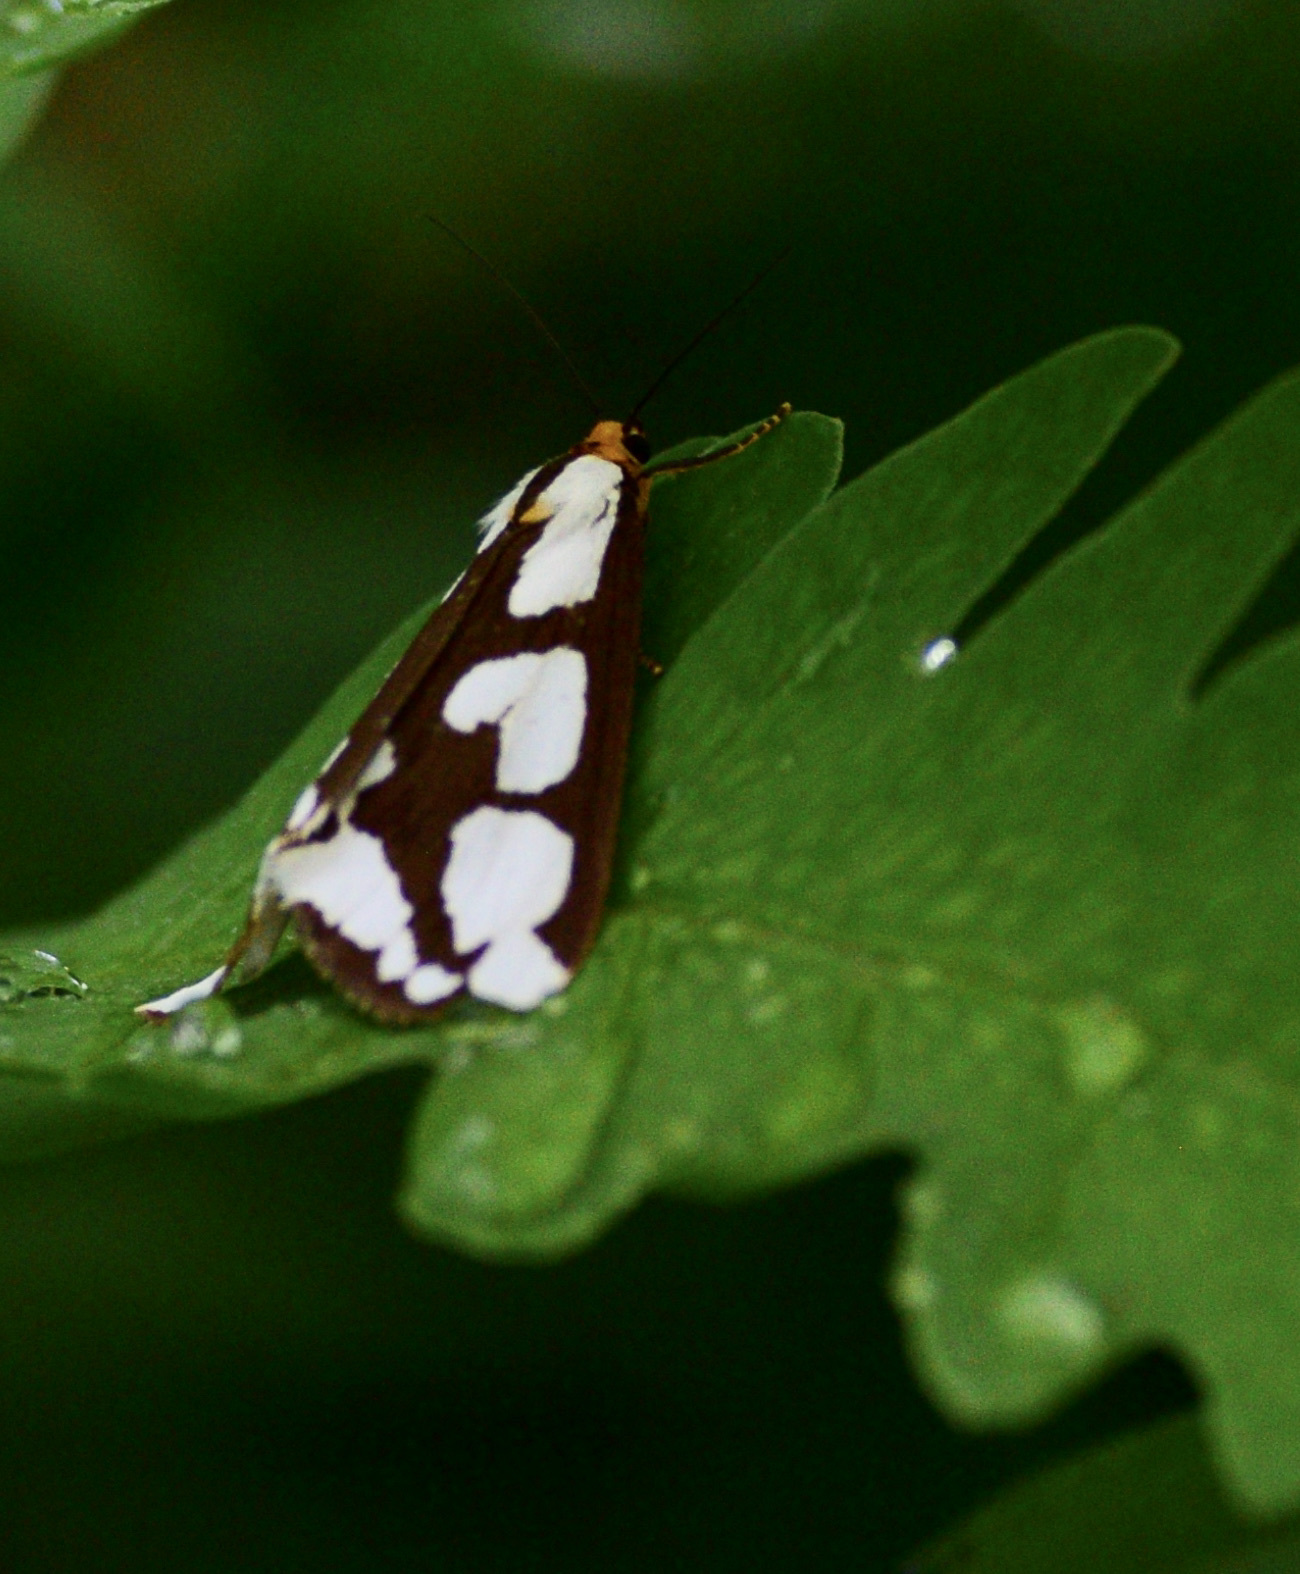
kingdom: Animalia
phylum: Arthropoda
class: Insecta
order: Lepidoptera
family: Erebidae
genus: Haploa
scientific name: Haploa confusa
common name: Confused haploa moth
